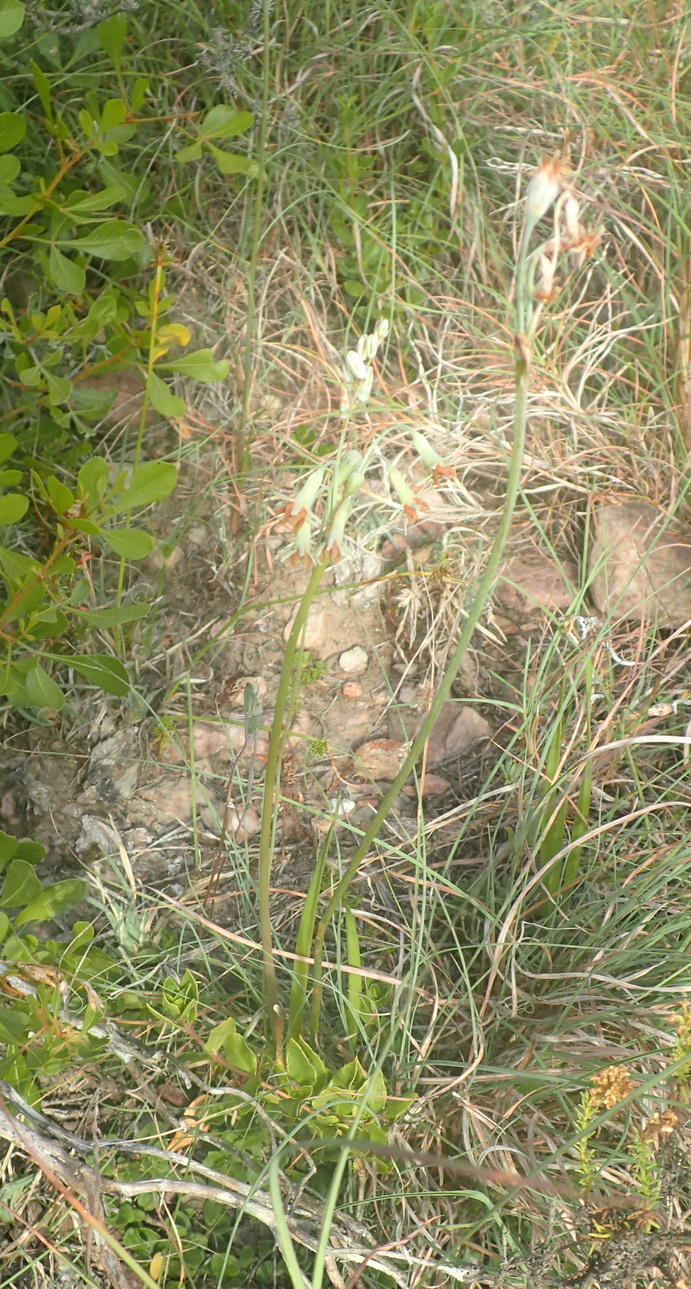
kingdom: Plantae
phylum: Tracheophyta
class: Liliopsida
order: Asparagales
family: Amaryllidaceae
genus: Tulbaghia
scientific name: Tulbaghia capensis
